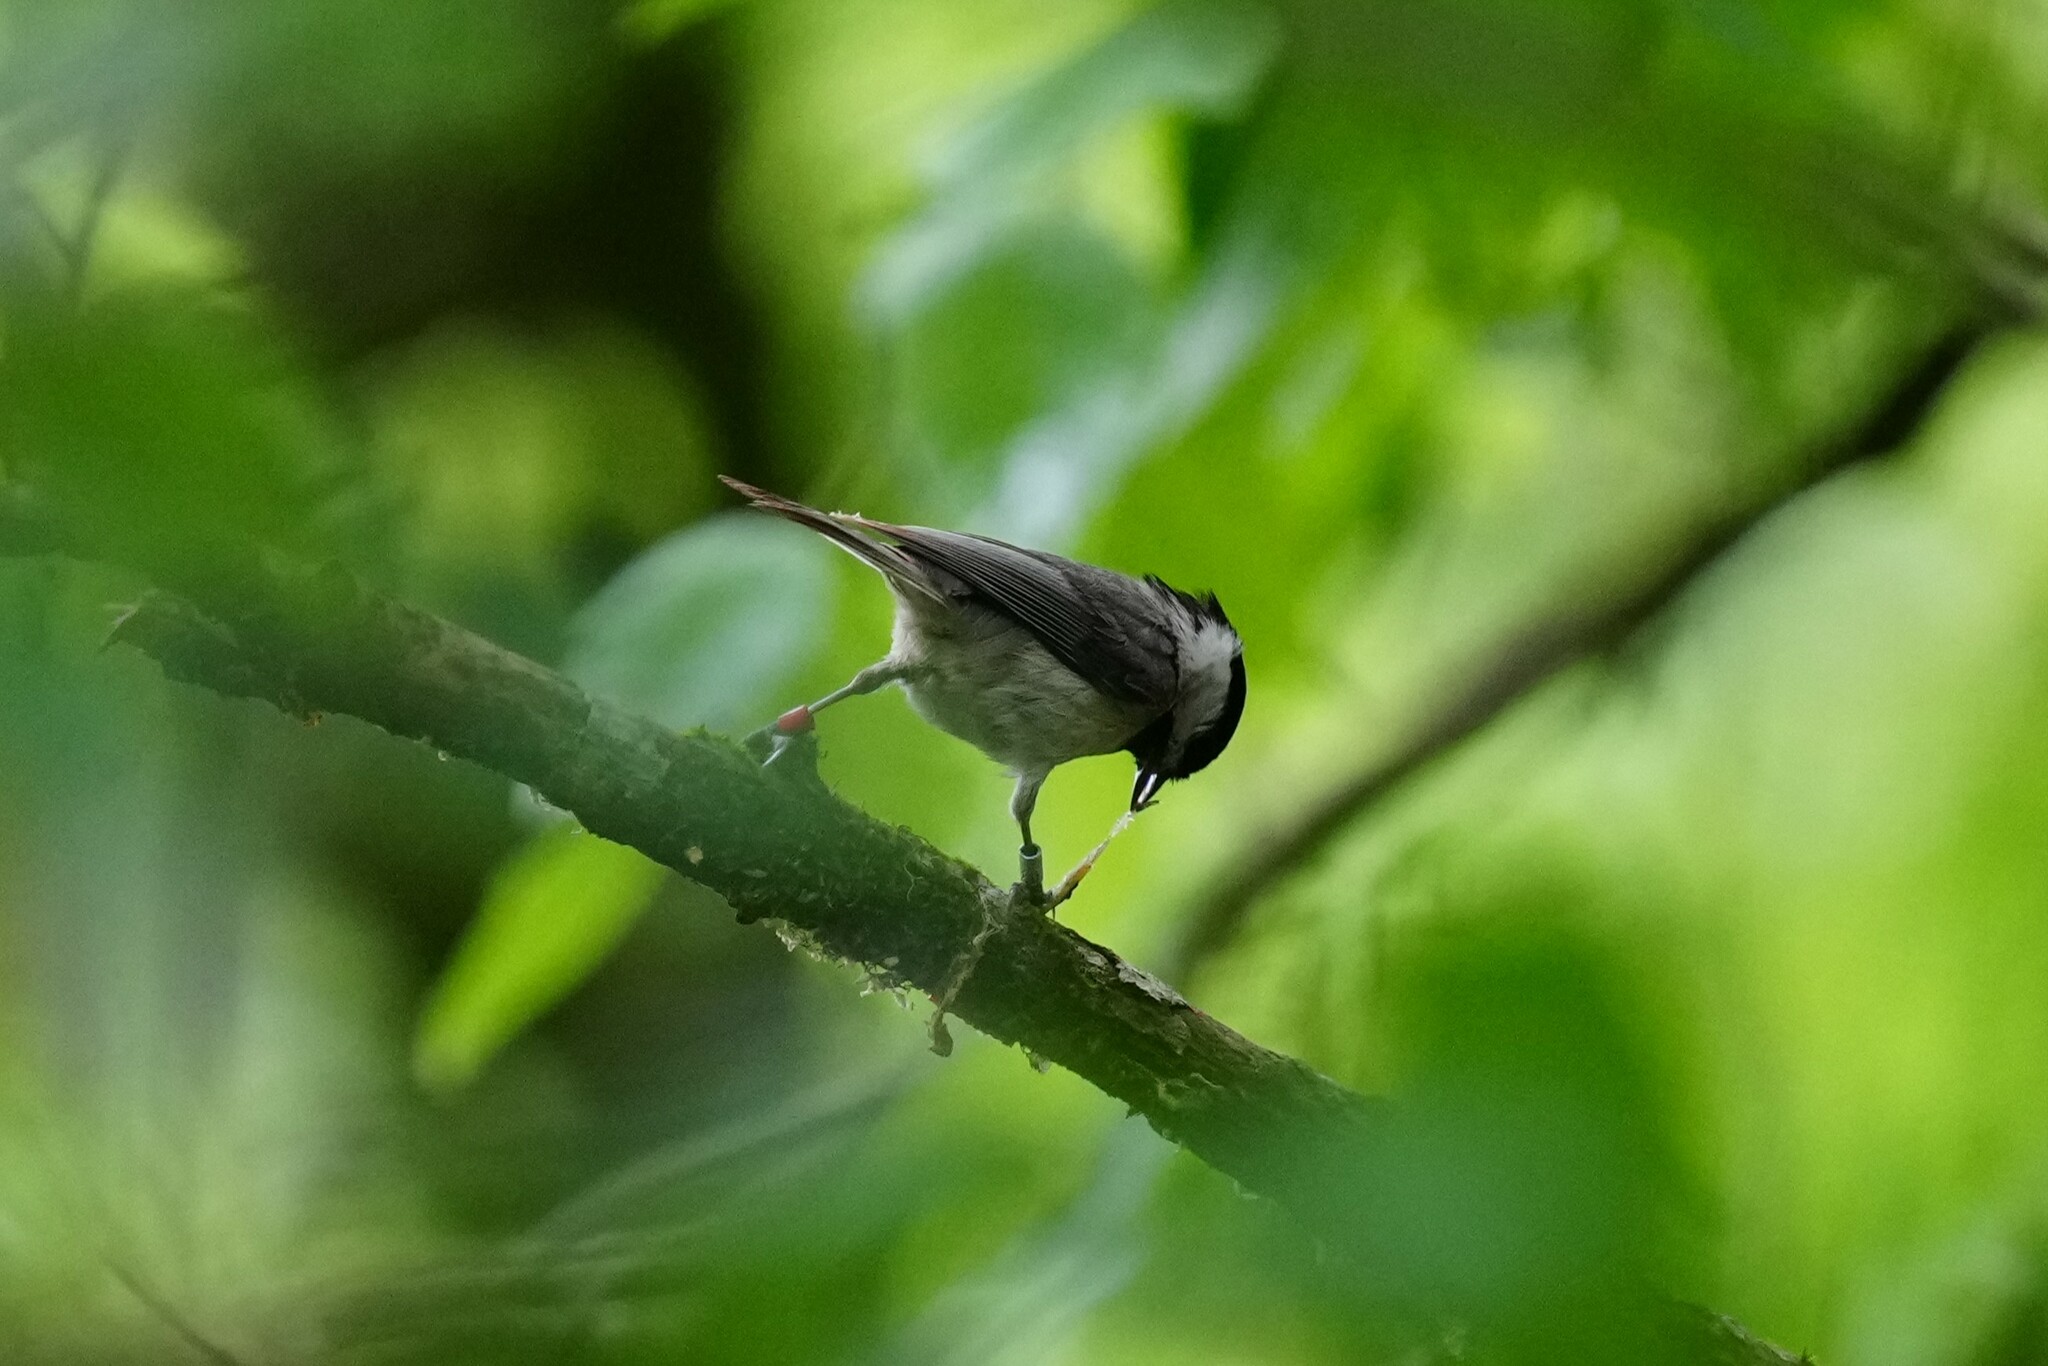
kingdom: Animalia
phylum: Chordata
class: Aves
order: Passeriformes
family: Paridae
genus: Poecile
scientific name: Poecile carolinensis
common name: Carolina chickadee
